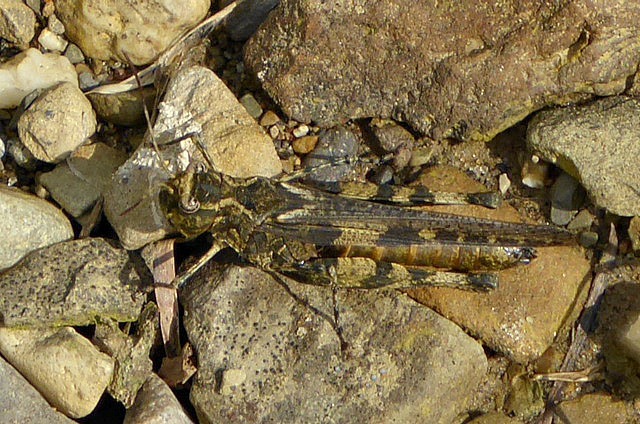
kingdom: Animalia
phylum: Arthropoda
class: Insecta
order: Orthoptera
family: Acrididae
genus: Trachyrhachys
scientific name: Trachyrhachys kiowa
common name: Kiowa grasshopper
